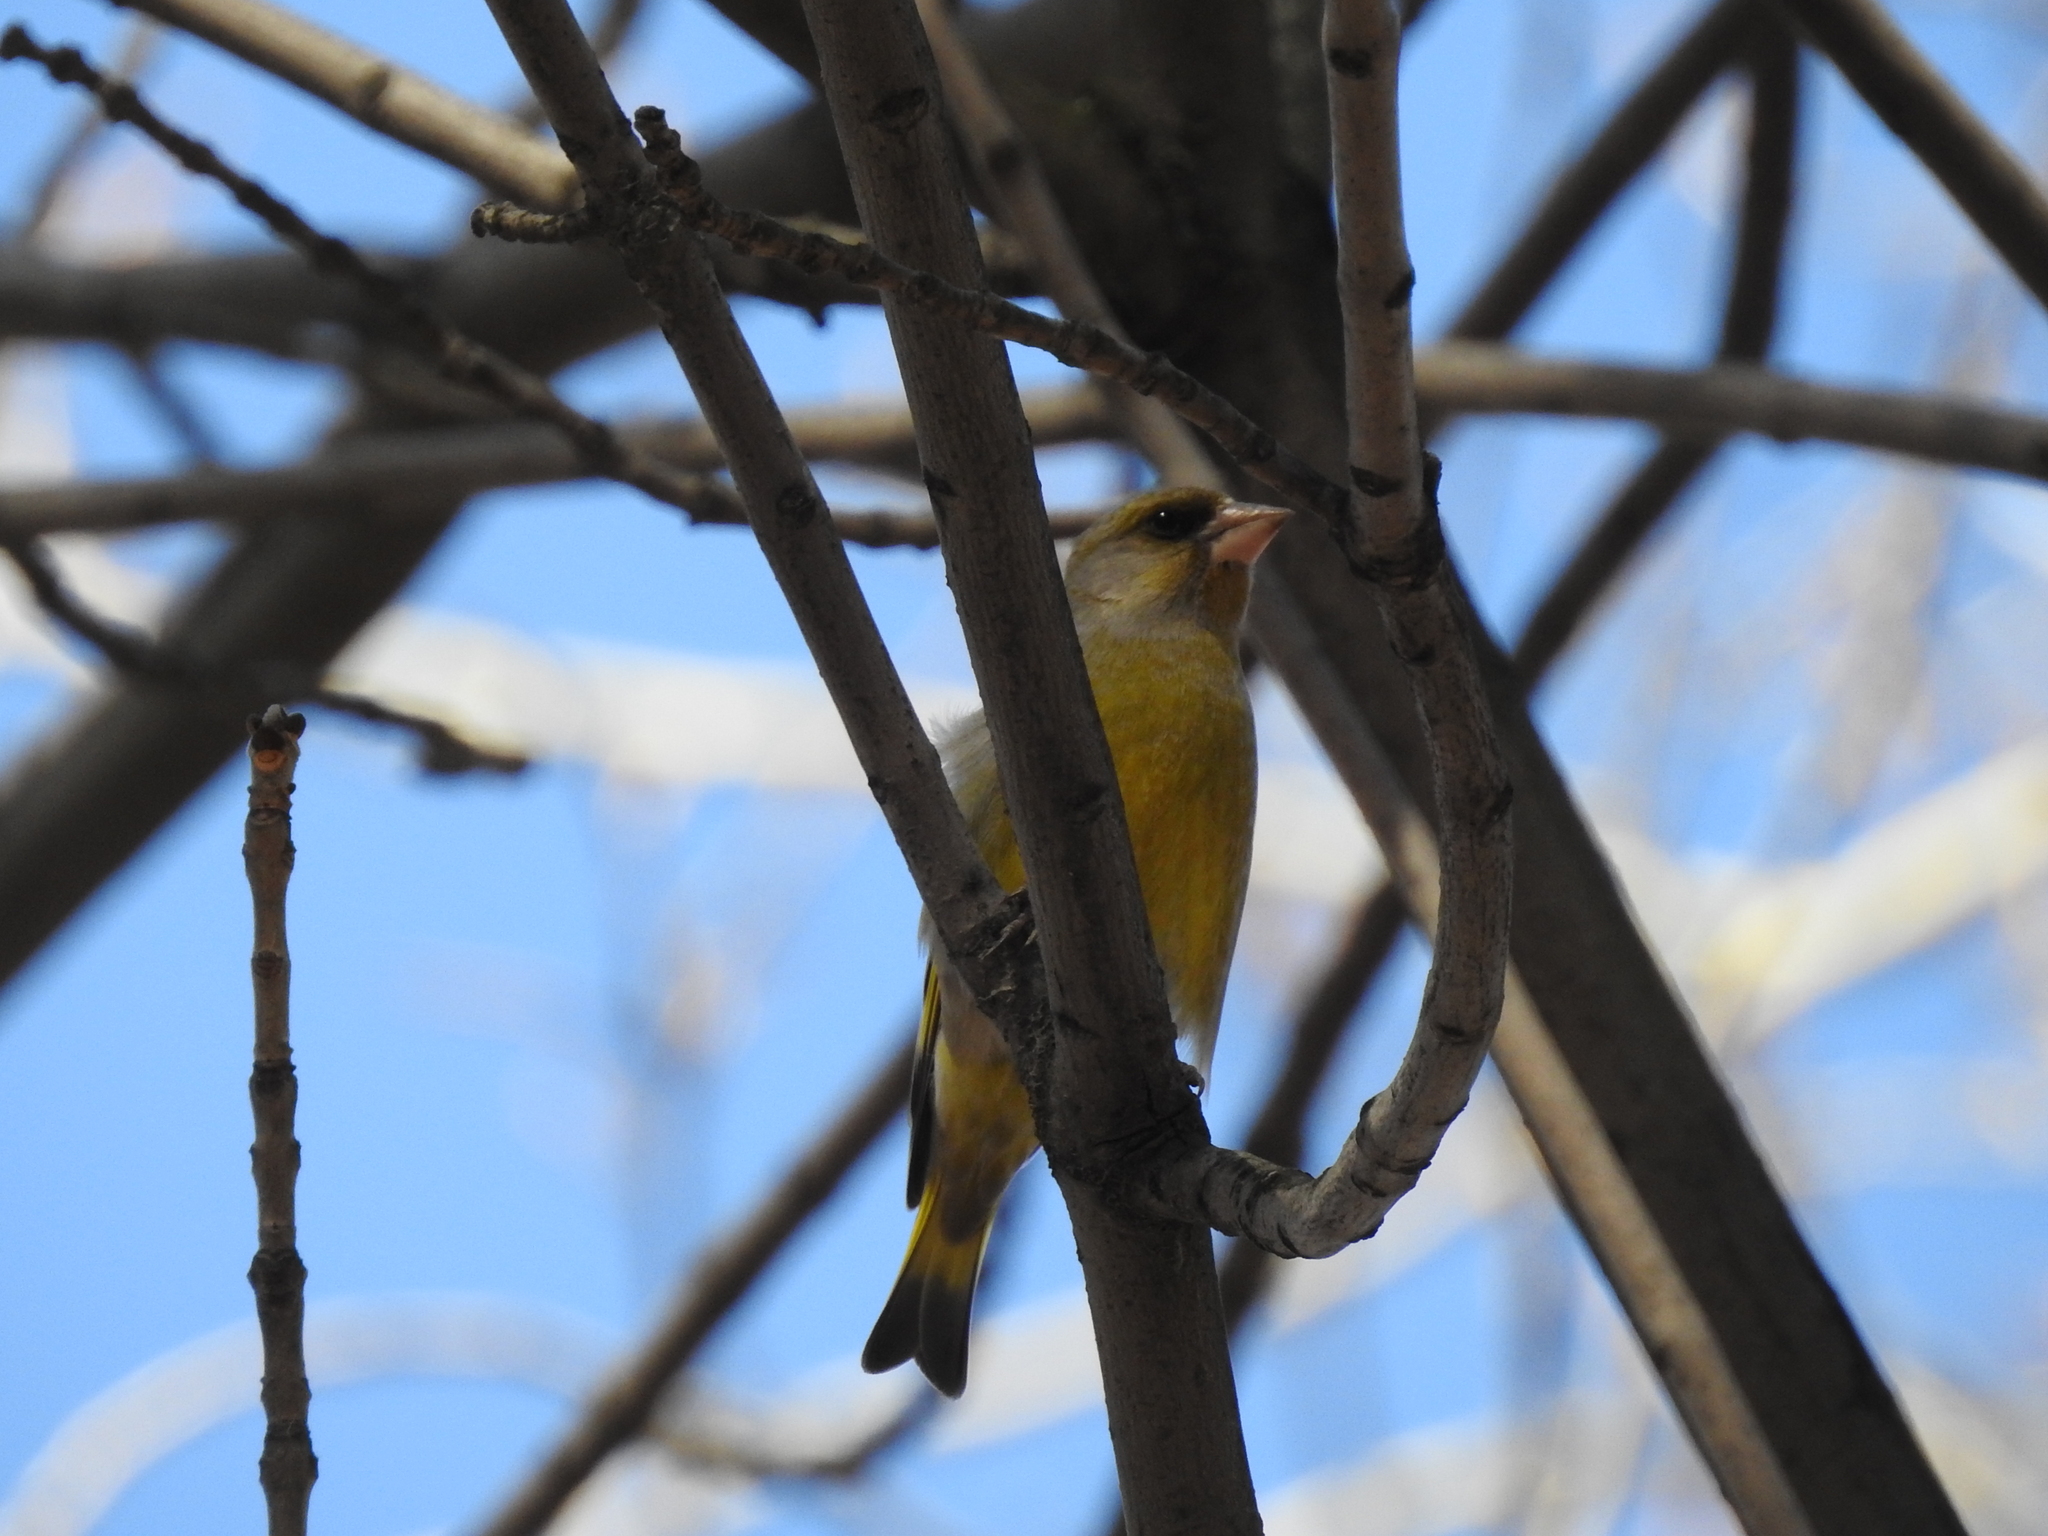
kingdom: Plantae
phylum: Tracheophyta
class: Liliopsida
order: Poales
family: Poaceae
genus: Chloris
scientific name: Chloris chloris
